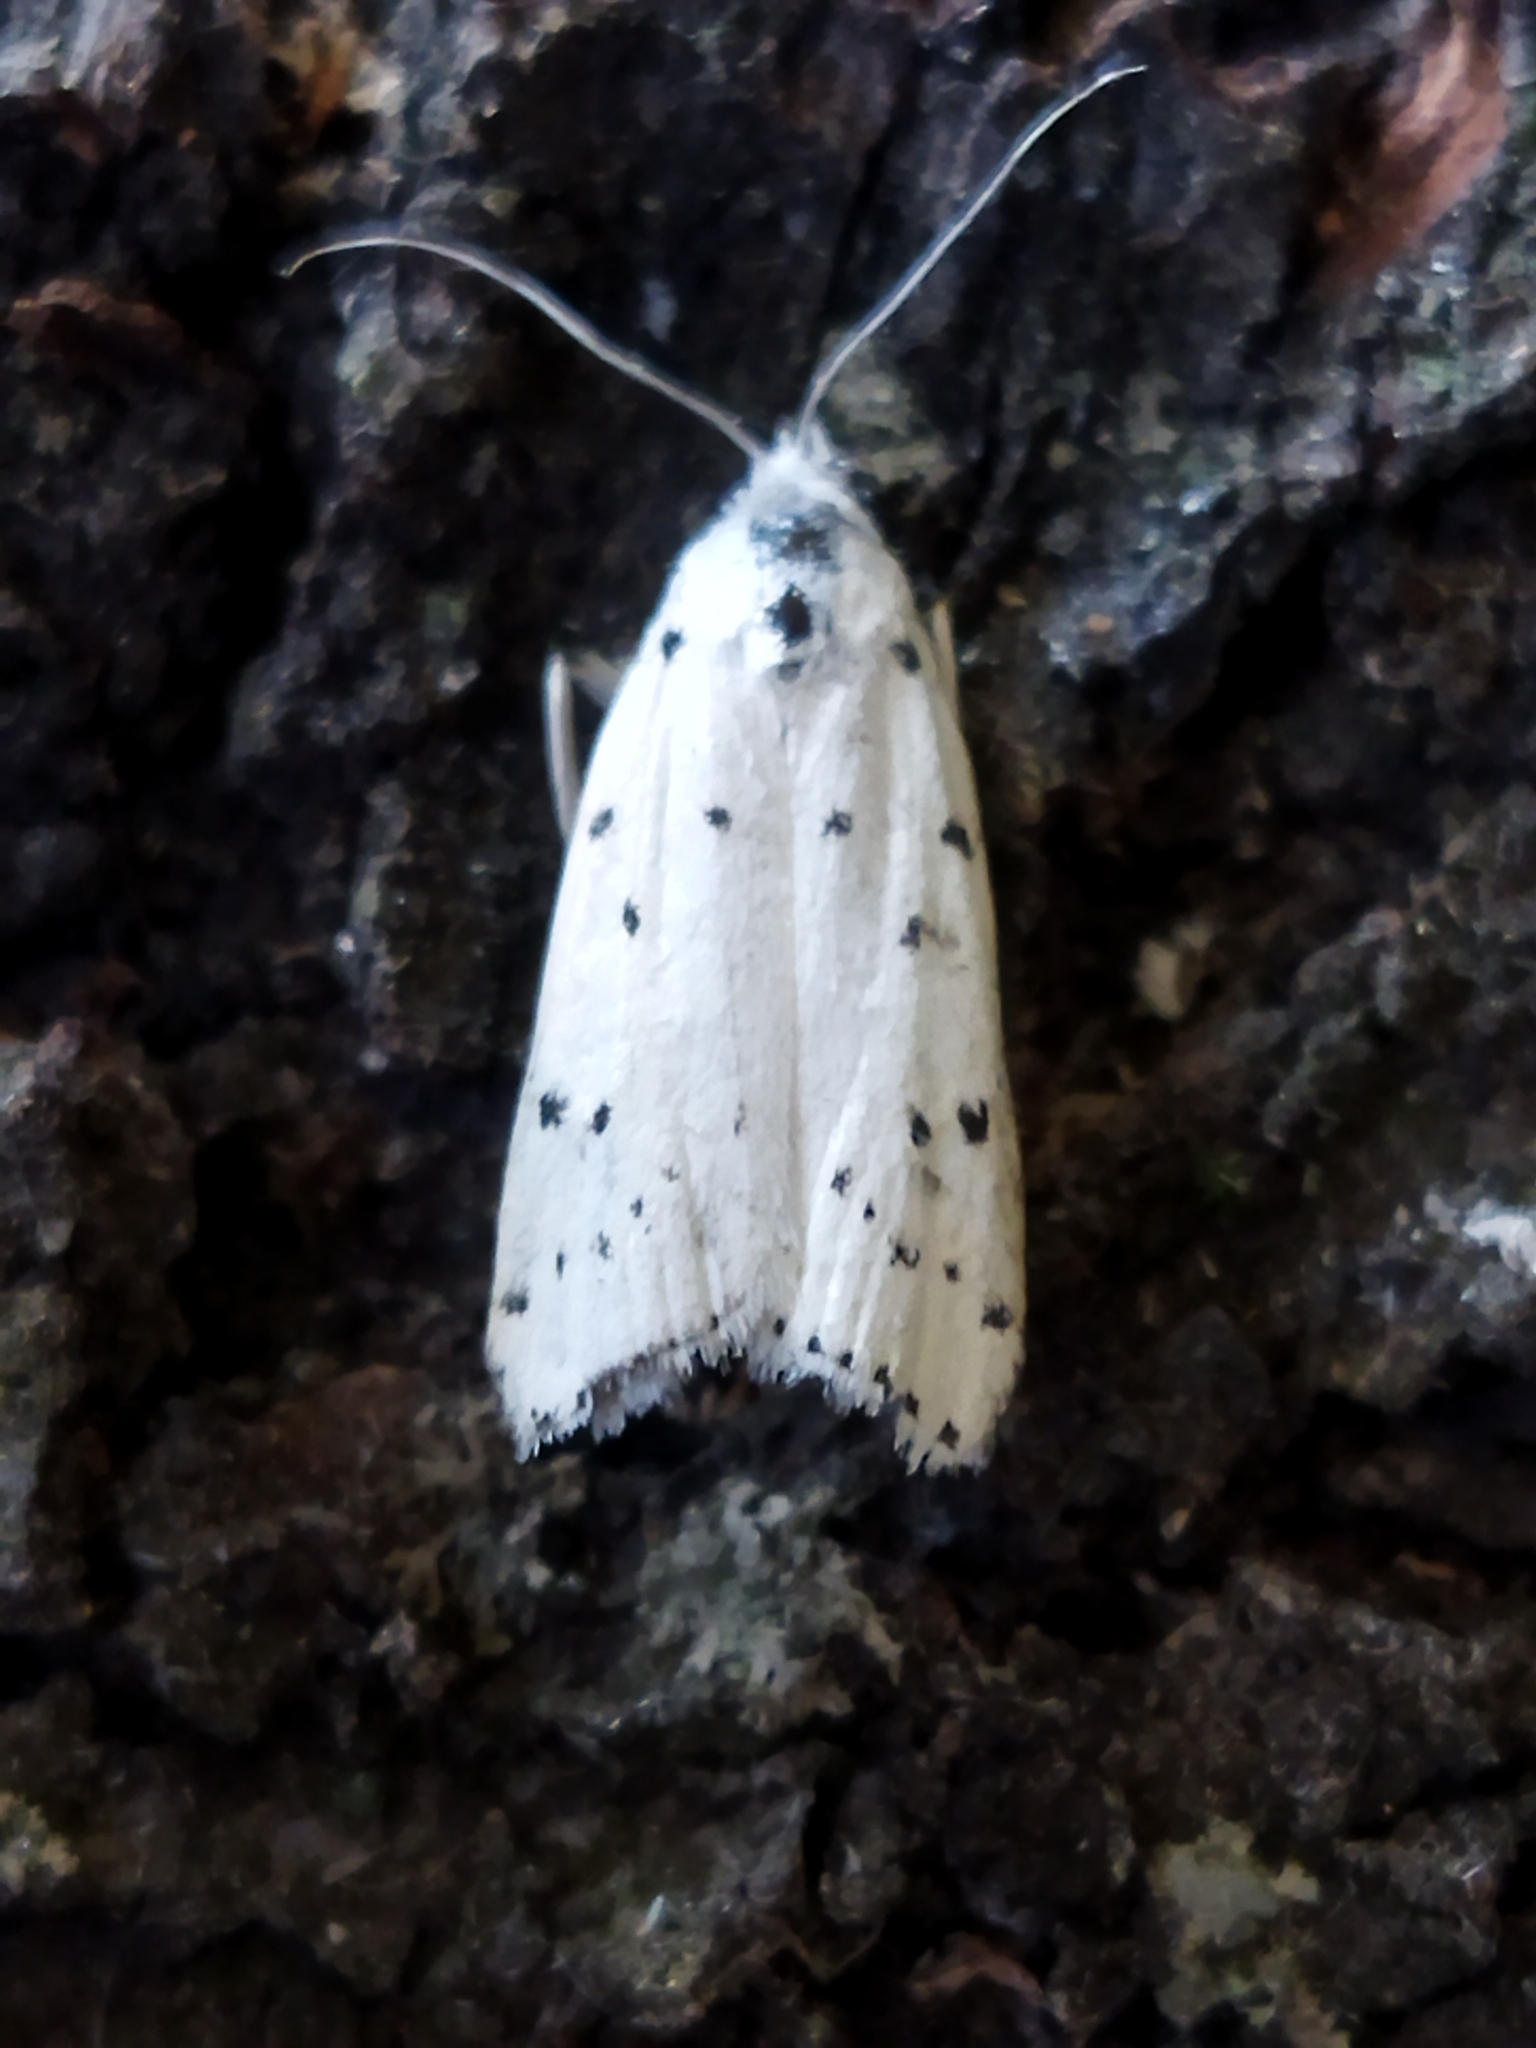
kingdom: Animalia
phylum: Arthropoda
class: Insecta
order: Lepidoptera
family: Pyralidae
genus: Myelois
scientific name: Myelois circumvoluta
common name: Thistle ermine
